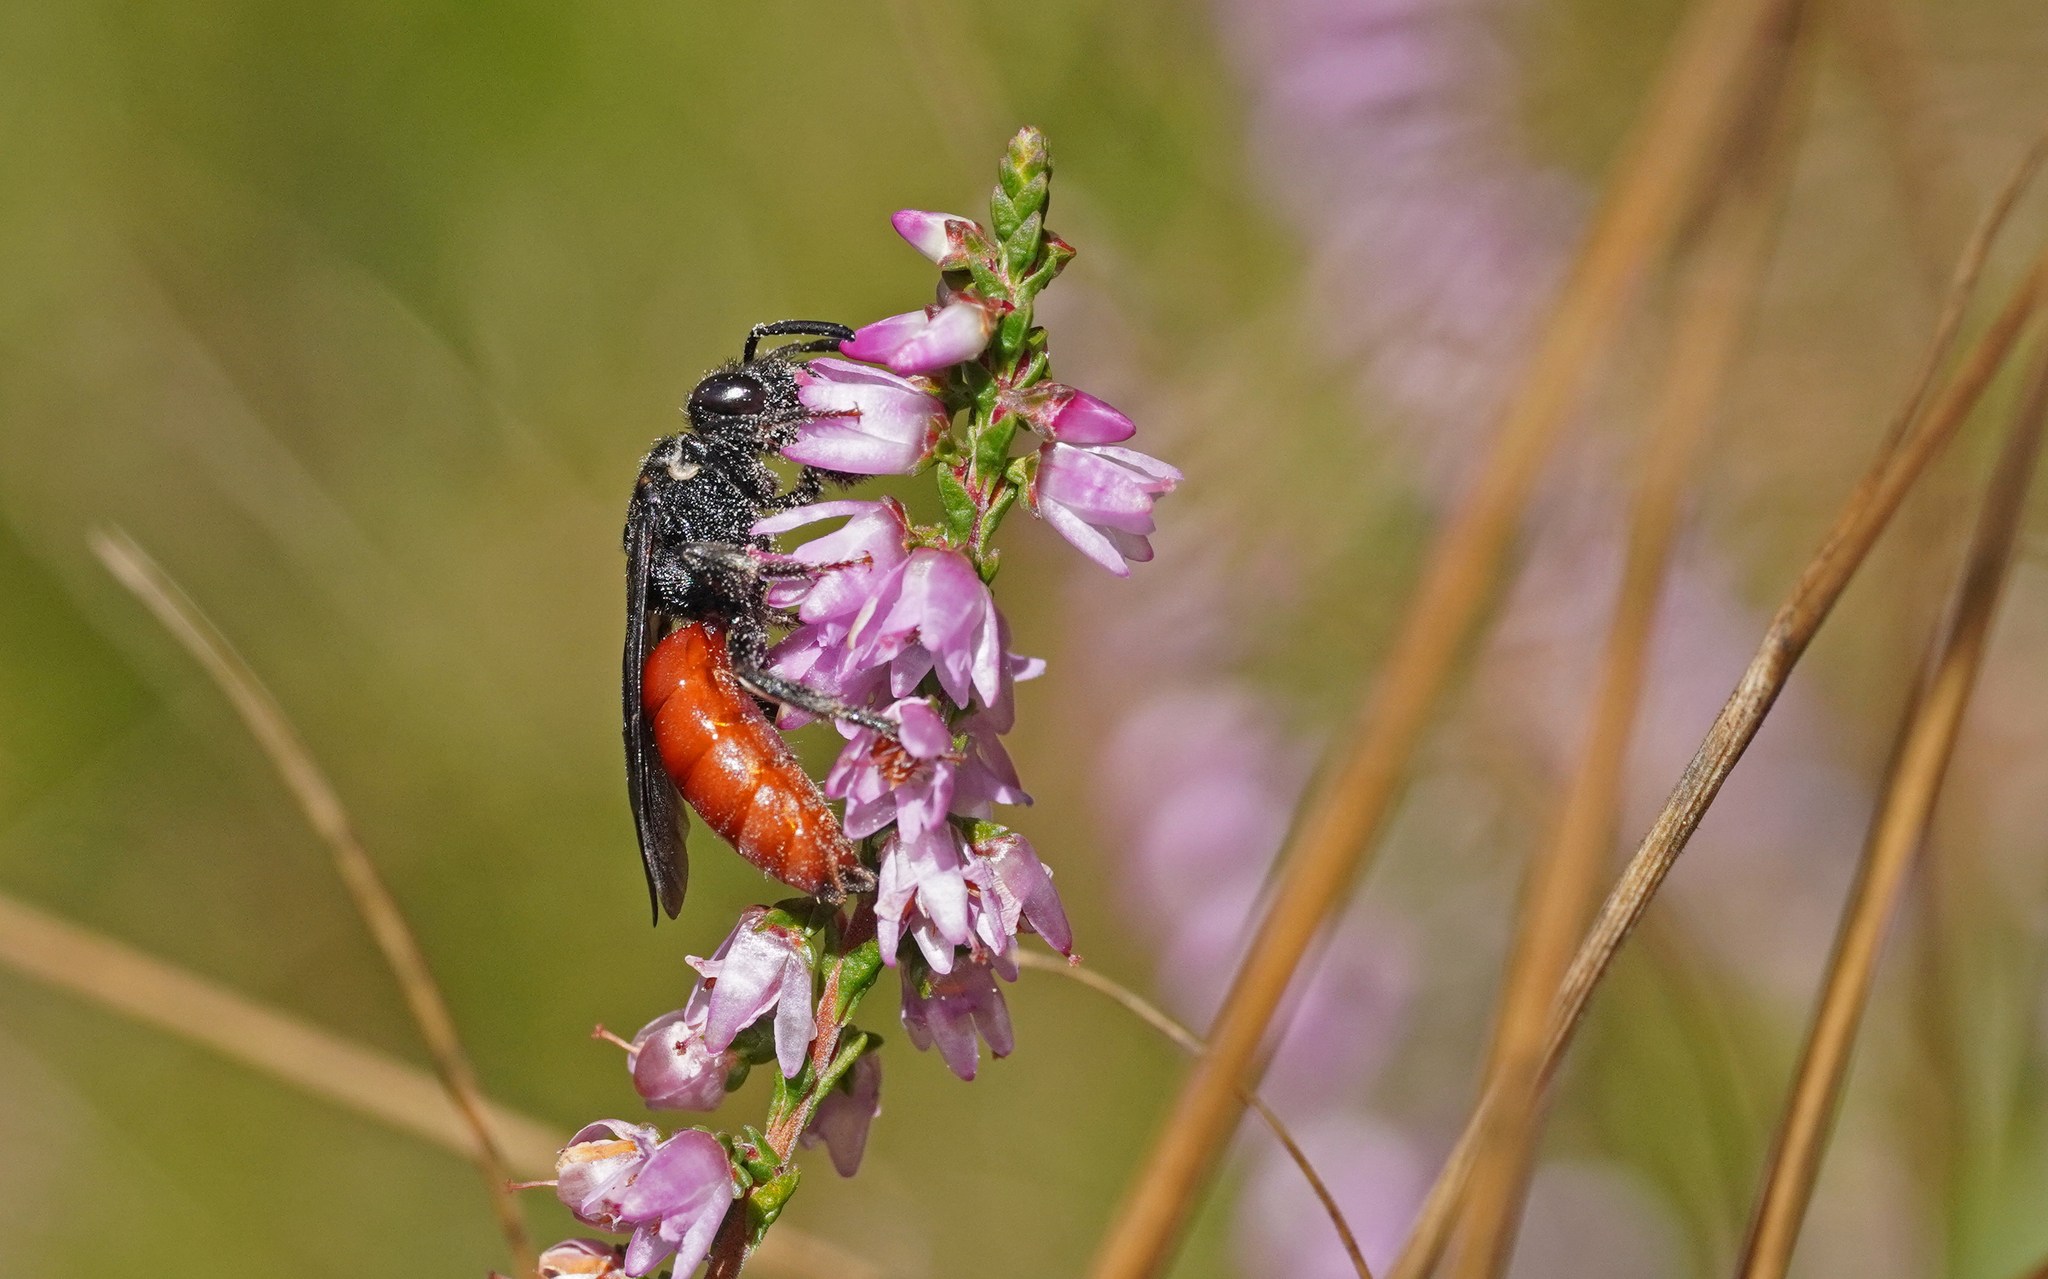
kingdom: Animalia
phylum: Arthropoda
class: Insecta
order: Hymenoptera
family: Halictidae
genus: Sphecodes
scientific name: Sphecodes albilabris
